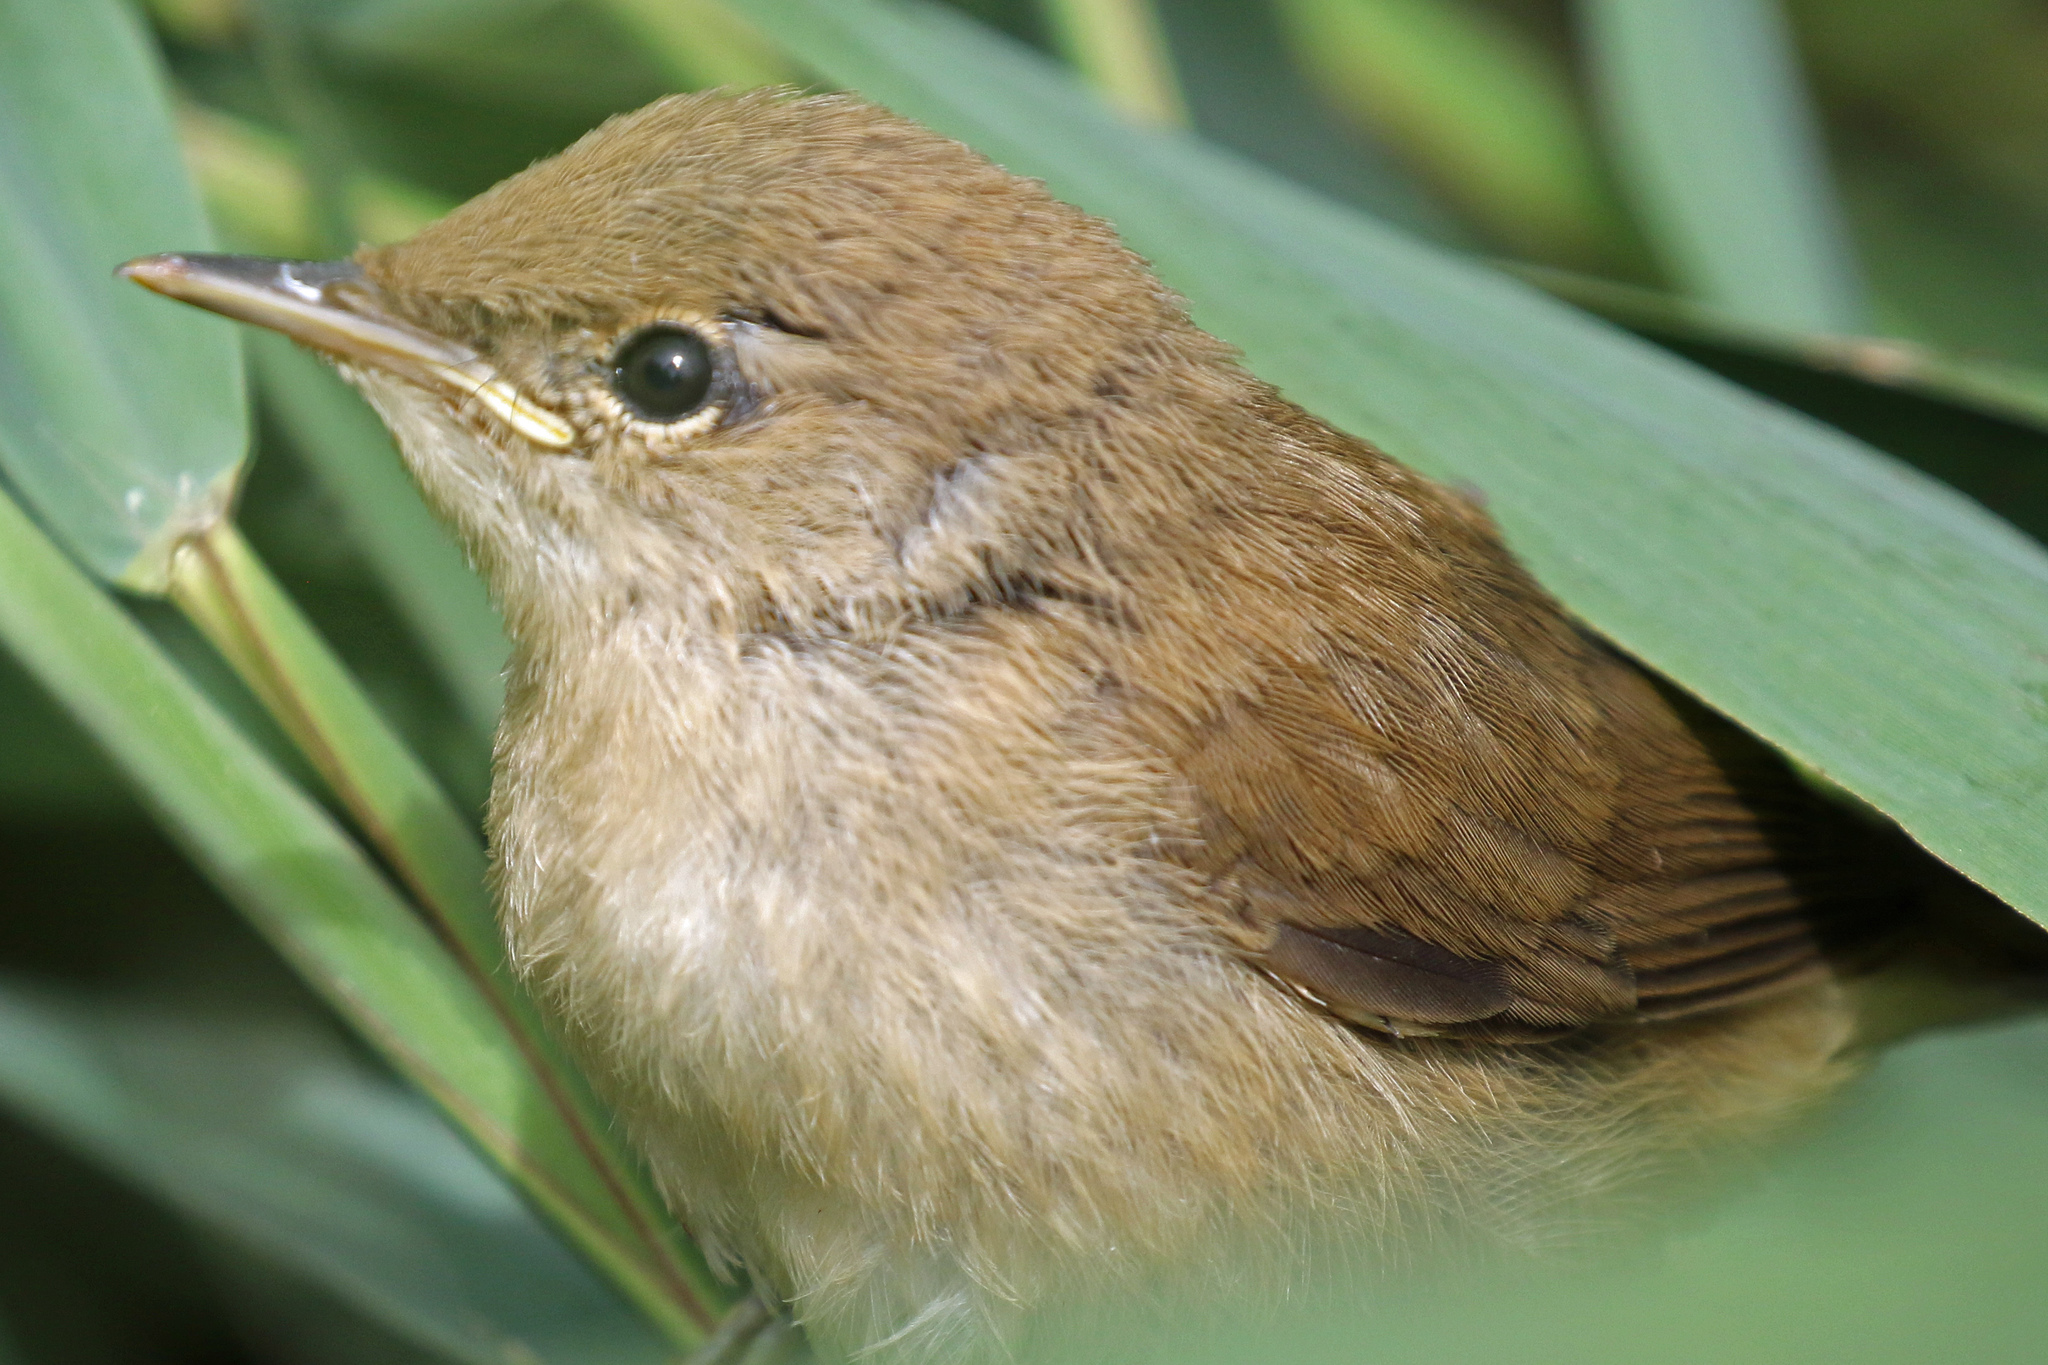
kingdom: Animalia
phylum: Chordata
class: Aves
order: Passeriformes
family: Acrocephalidae
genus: Acrocephalus
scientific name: Acrocephalus scirpaceus
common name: Eurasian reed warbler
